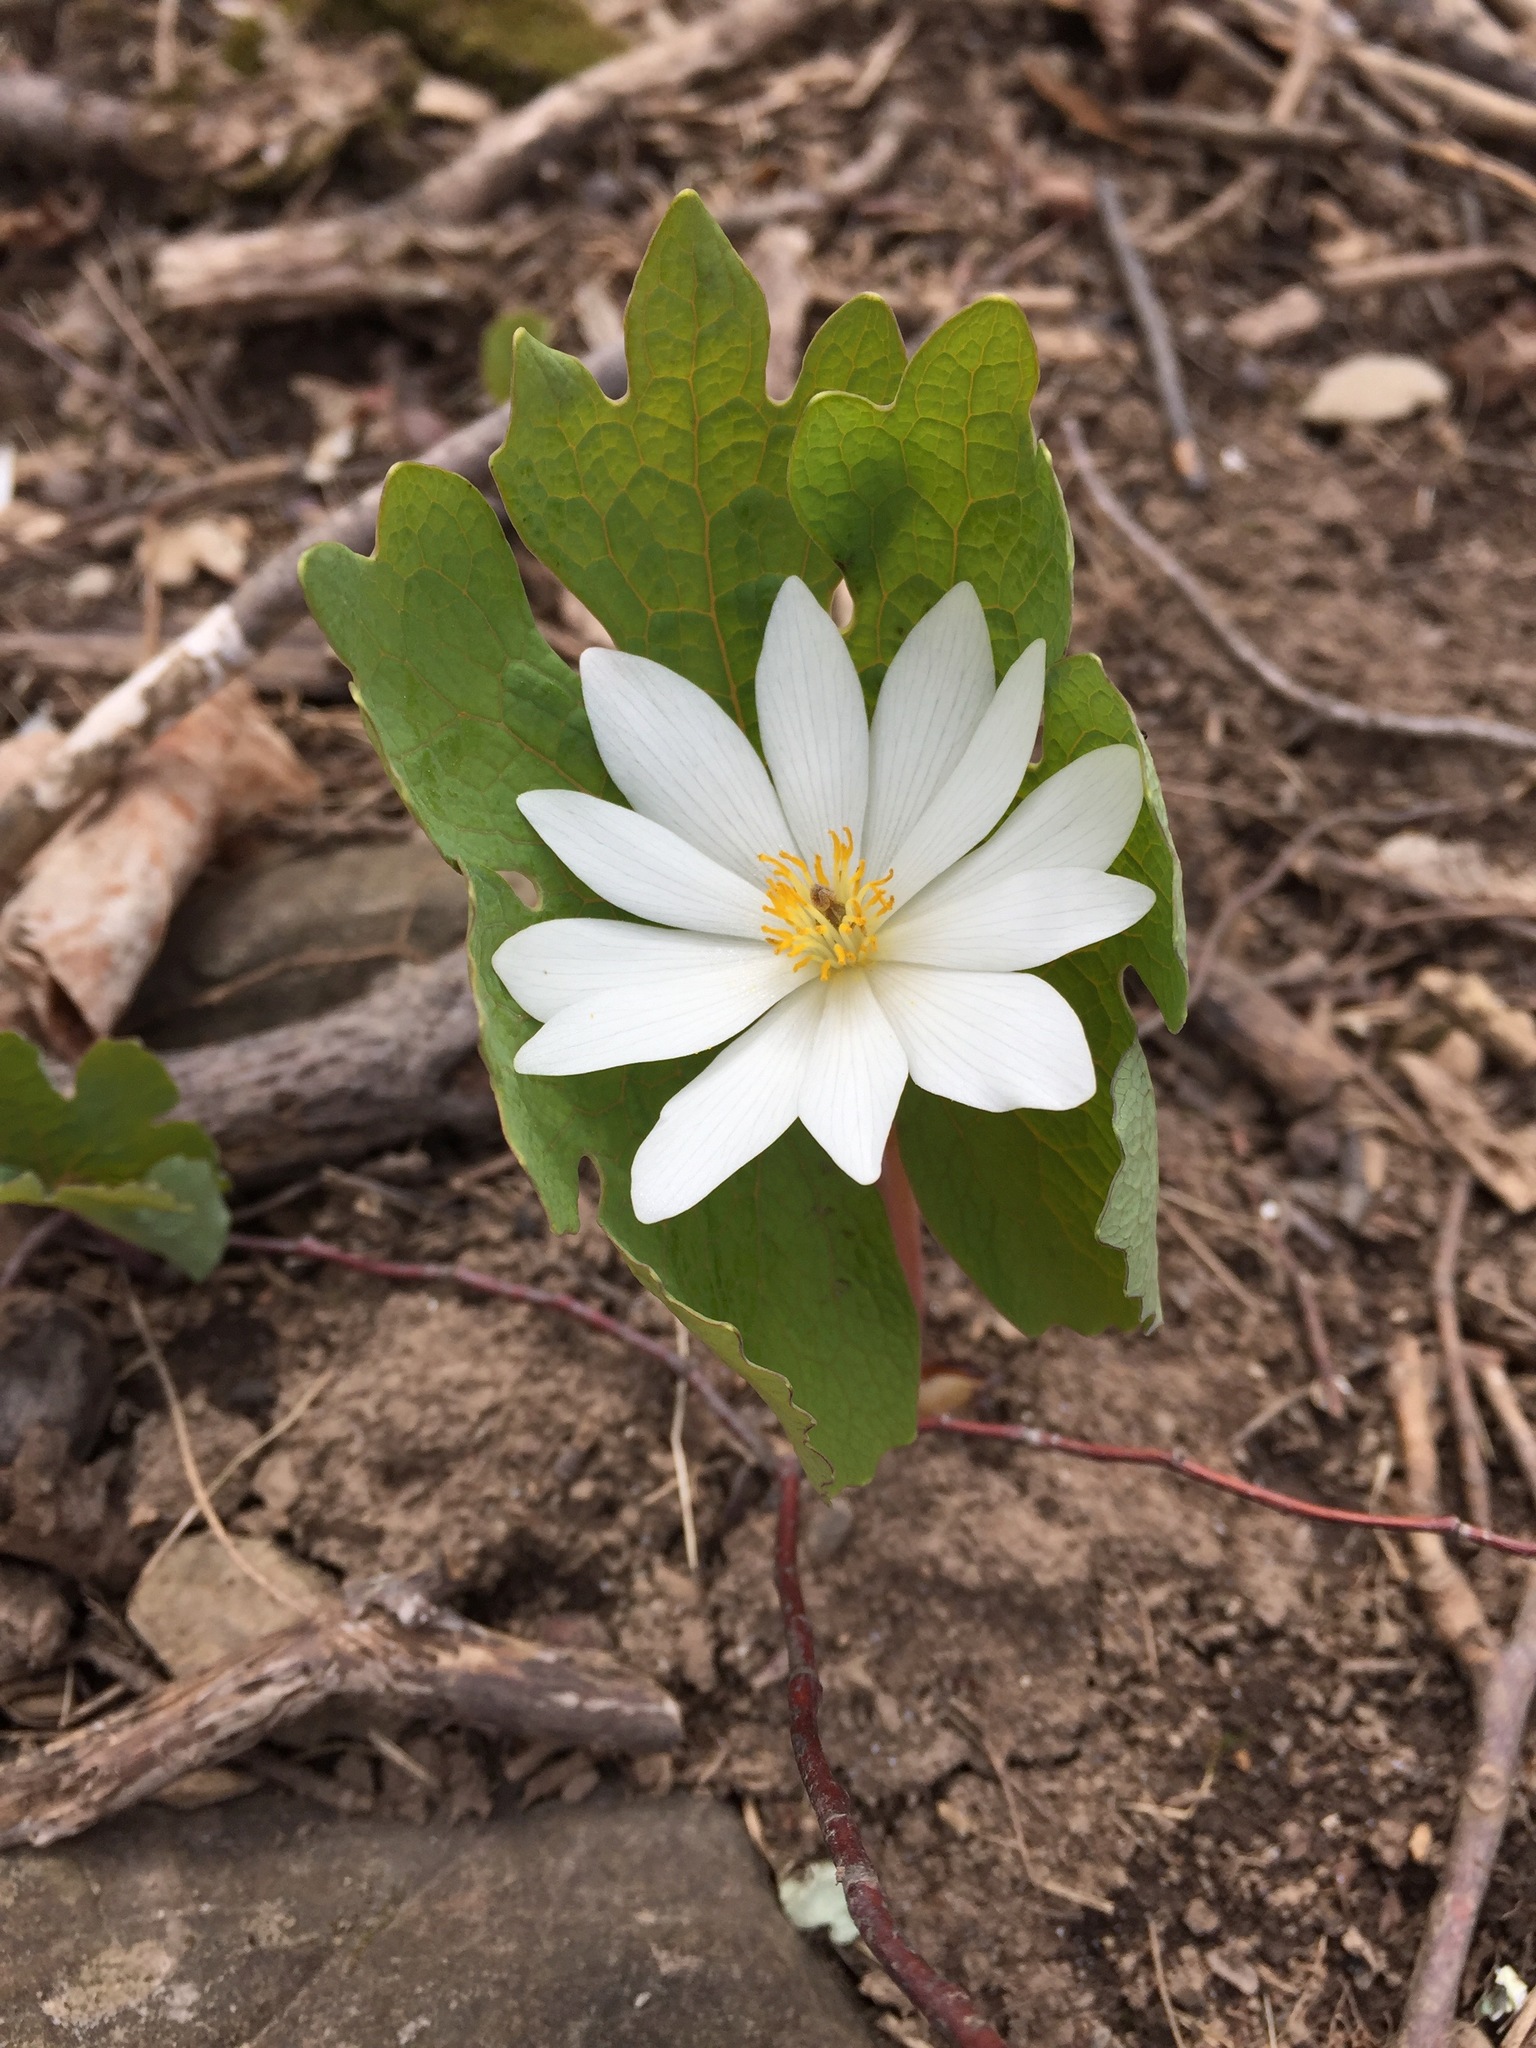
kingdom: Plantae
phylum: Tracheophyta
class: Magnoliopsida
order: Ranunculales
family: Papaveraceae
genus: Sanguinaria
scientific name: Sanguinaria canadensis
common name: Bloodroot
